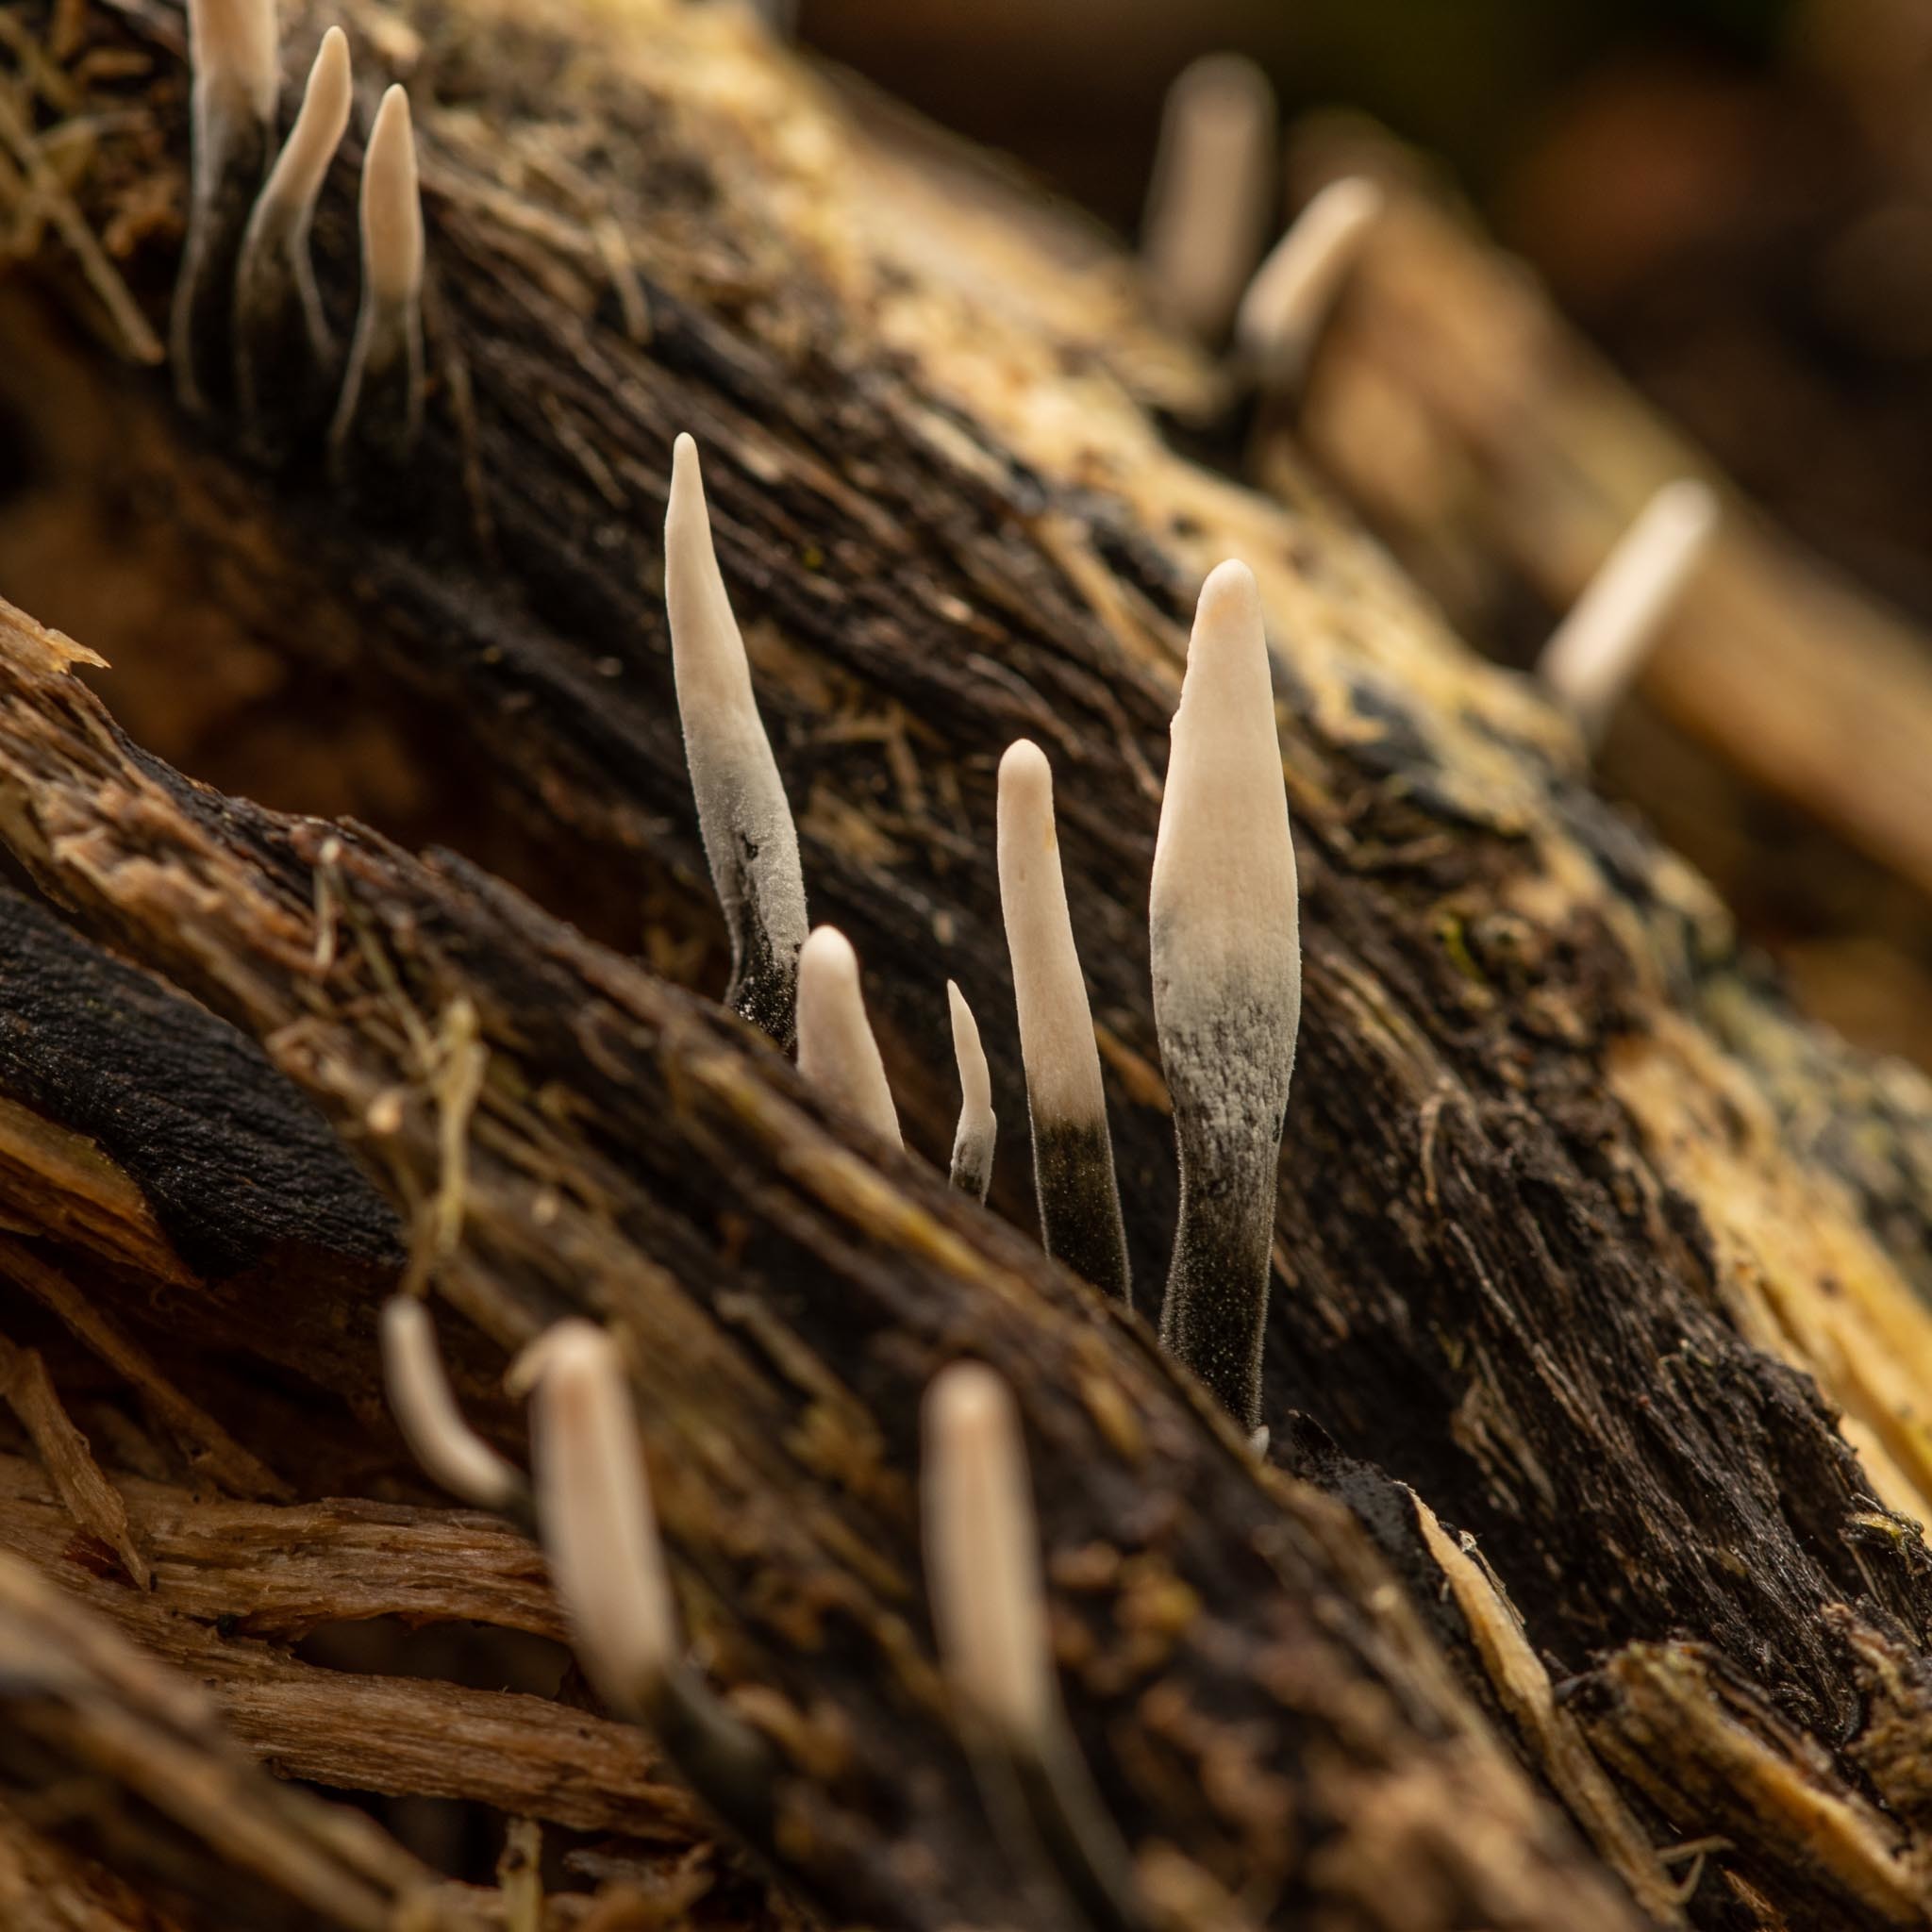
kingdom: Fungi
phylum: Ascomycota
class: Sordariomycetes
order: Xylariales
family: Xylariaceae
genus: Xylaria
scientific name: Xylaria hypoxylon
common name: Candle-snuff fungus
